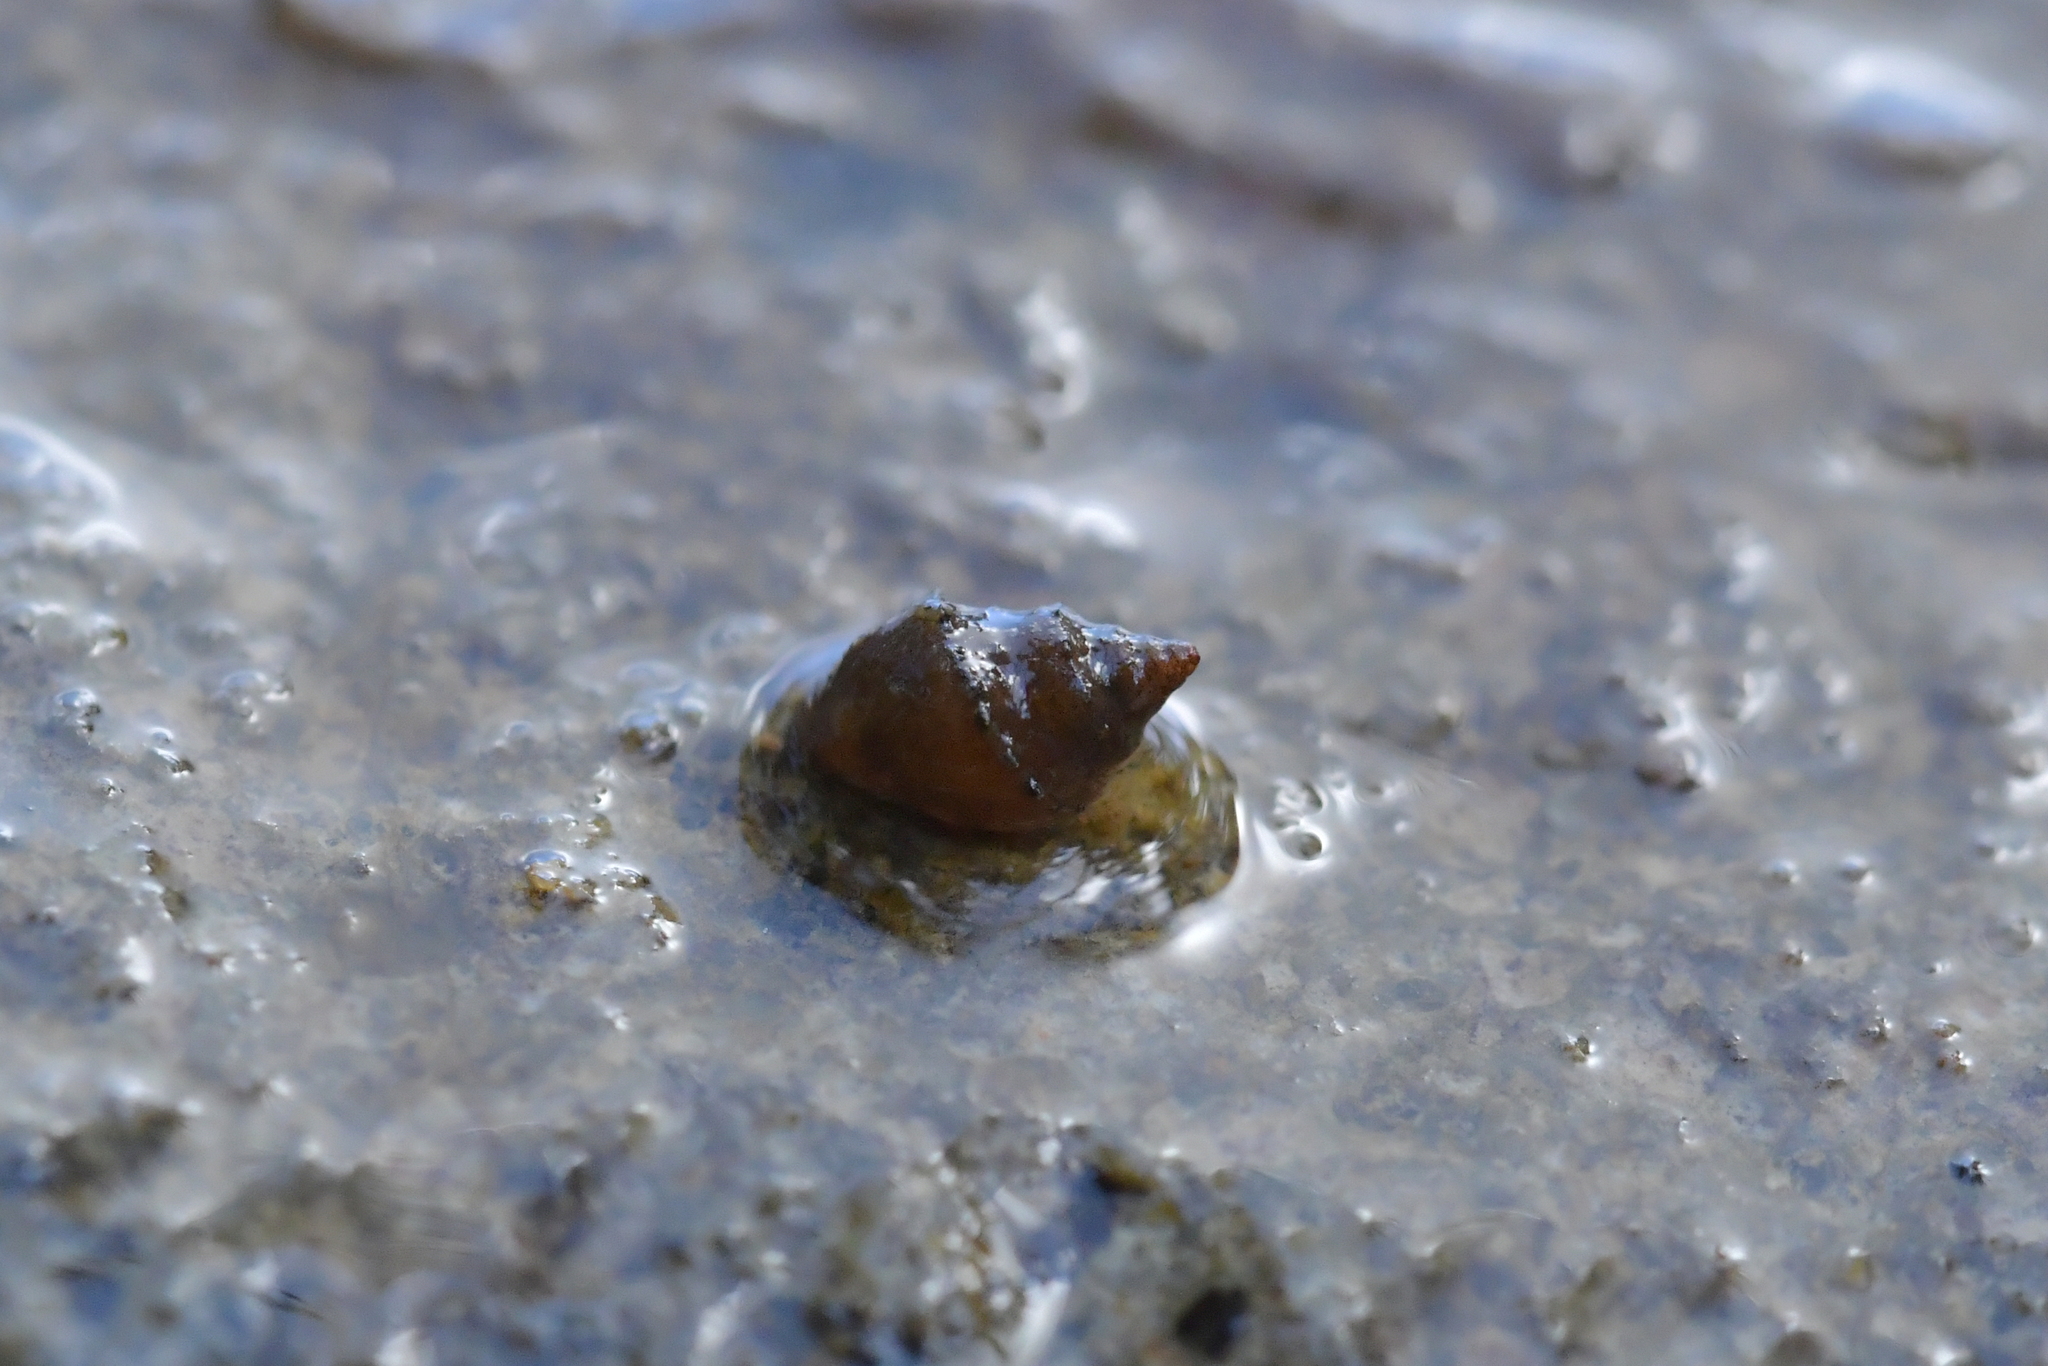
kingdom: Animalia
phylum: Mollusca
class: Gastropoda
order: Littorinimorpha
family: Tateidae
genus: Potamopyrgus
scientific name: Potamopyrgus antipodarum
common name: Jenkins' spire snail
